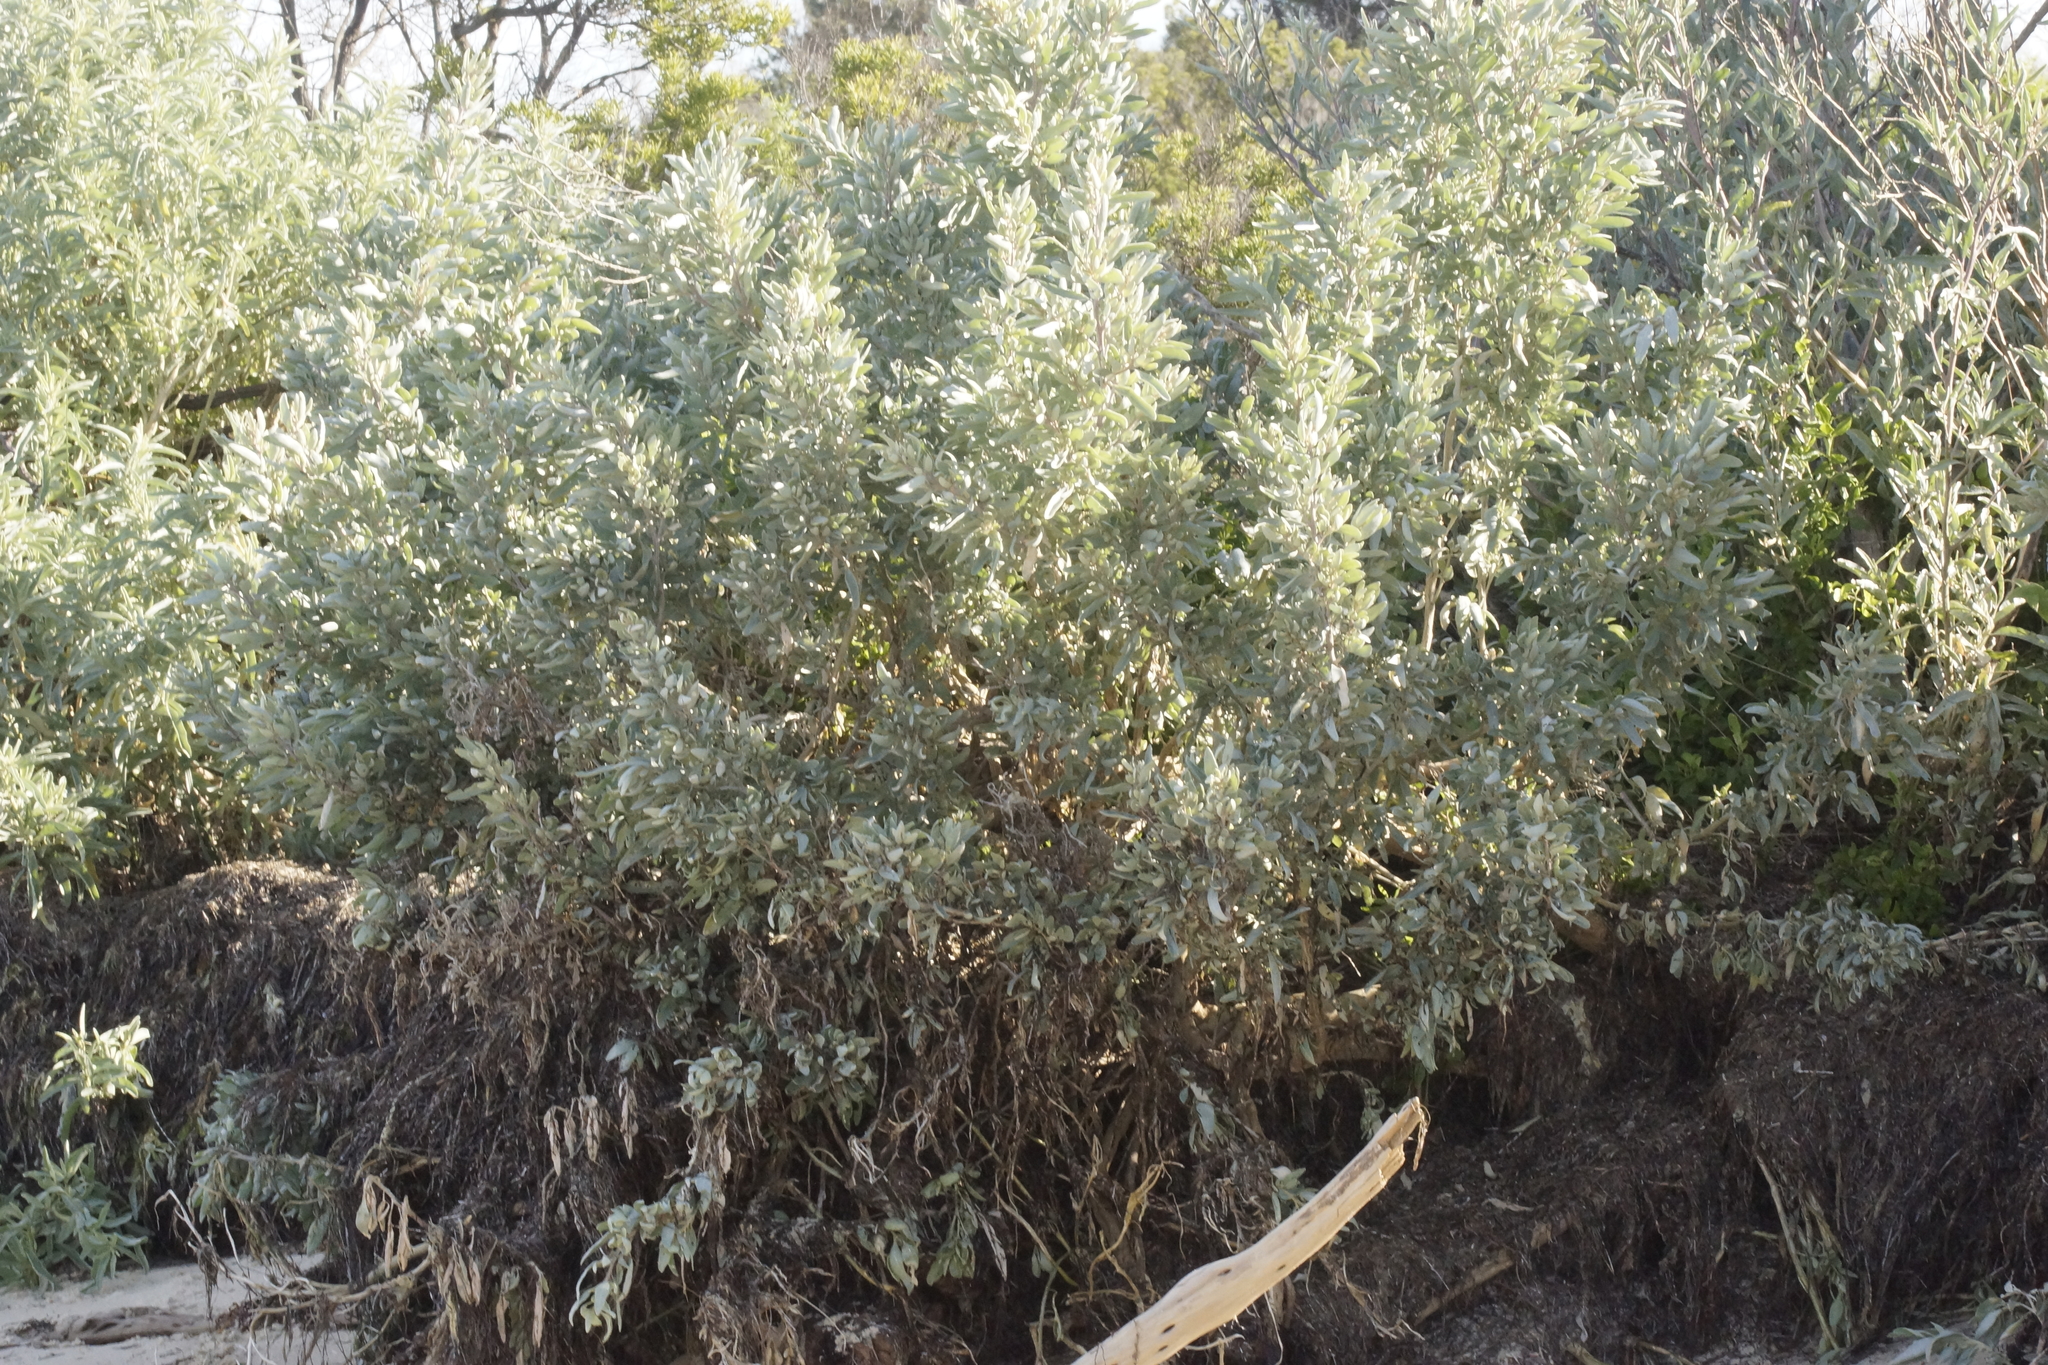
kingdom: Plantae
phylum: Tracheophyta
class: Magnoliopsida
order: Caryophyllales
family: Amaranthaceae
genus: Atriplex
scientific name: Atriplex cinerea
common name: Grey saltbush
